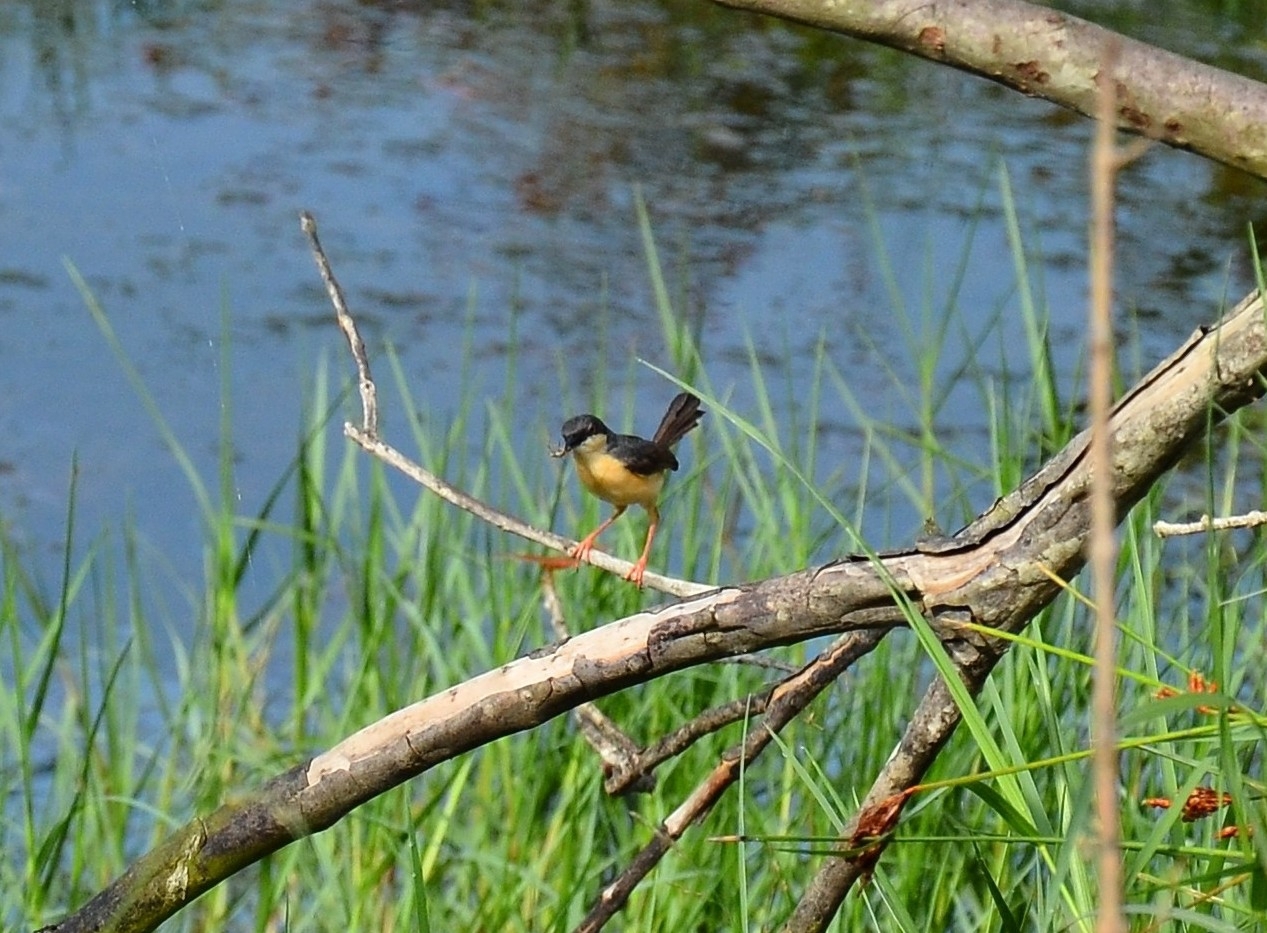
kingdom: Animalia
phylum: Chordata
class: Aves
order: Passeriformes
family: Cisticolidae
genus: Prinia
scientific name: Prinia socialis
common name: Ashy prinia
